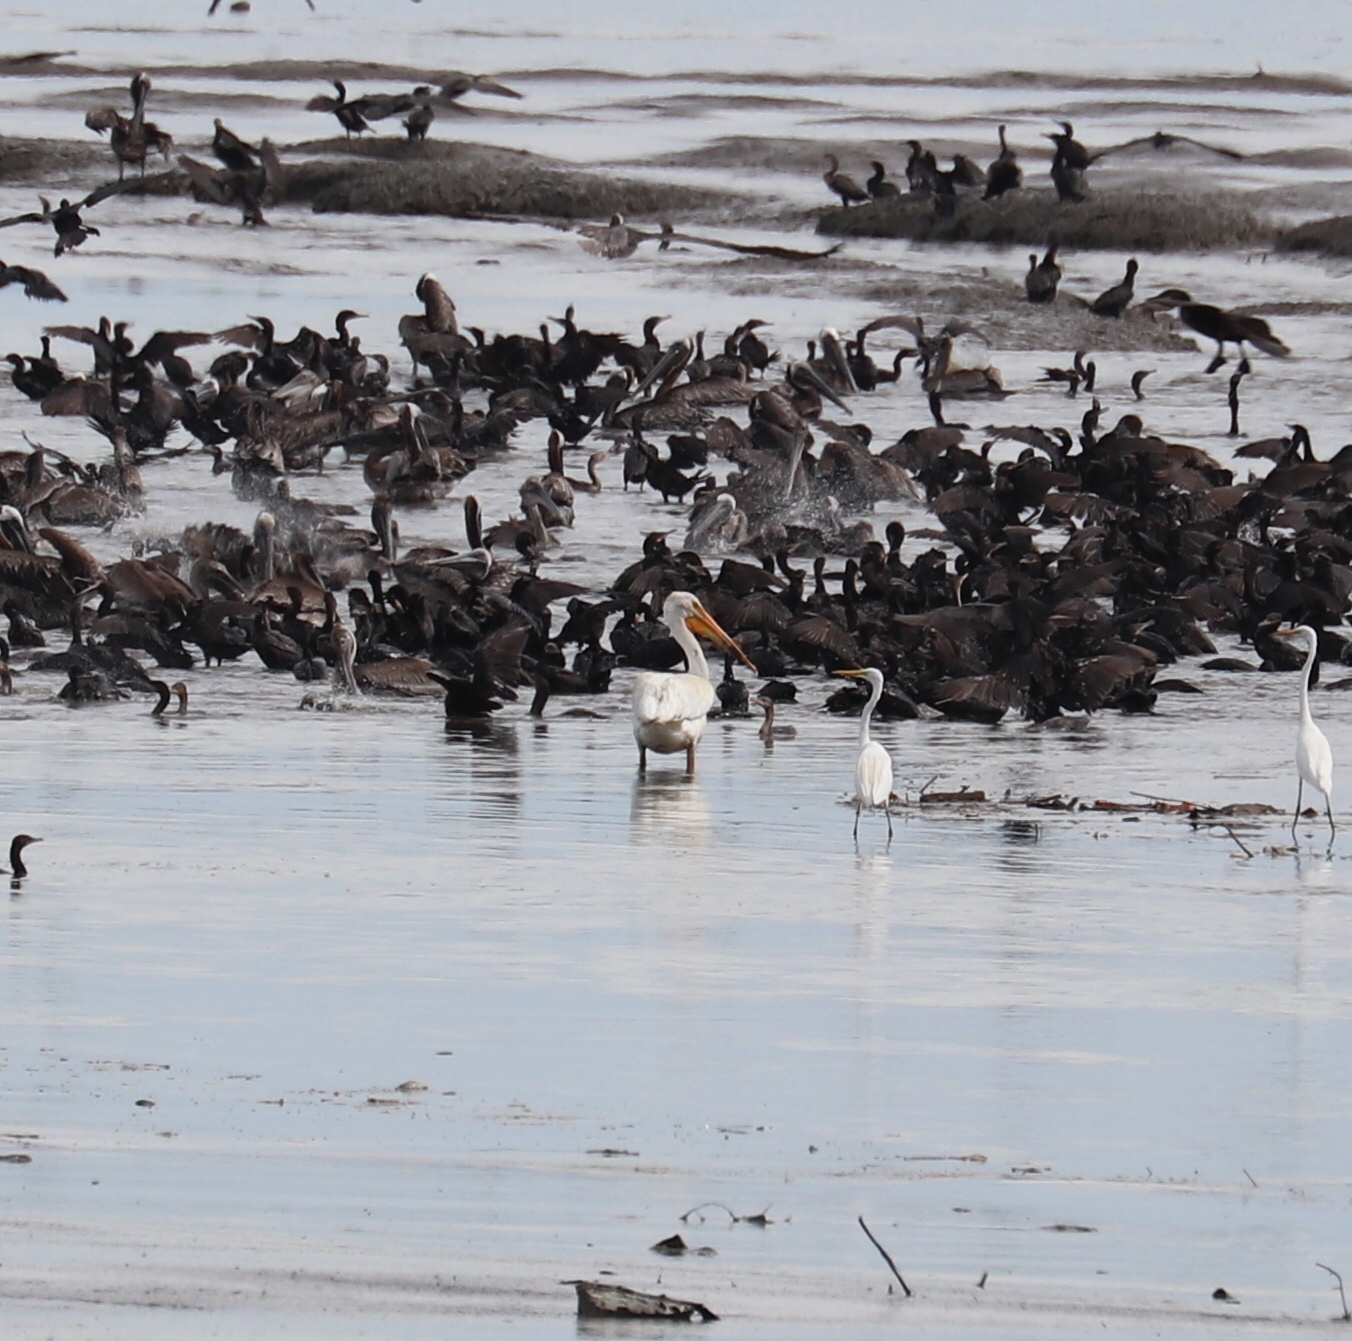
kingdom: Animalia
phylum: Chordata
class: Aves
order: Pelecaniformes
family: Pelecanidae
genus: Pelecanus
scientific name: Pelecanus erythrorhynchos
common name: American white pelican
